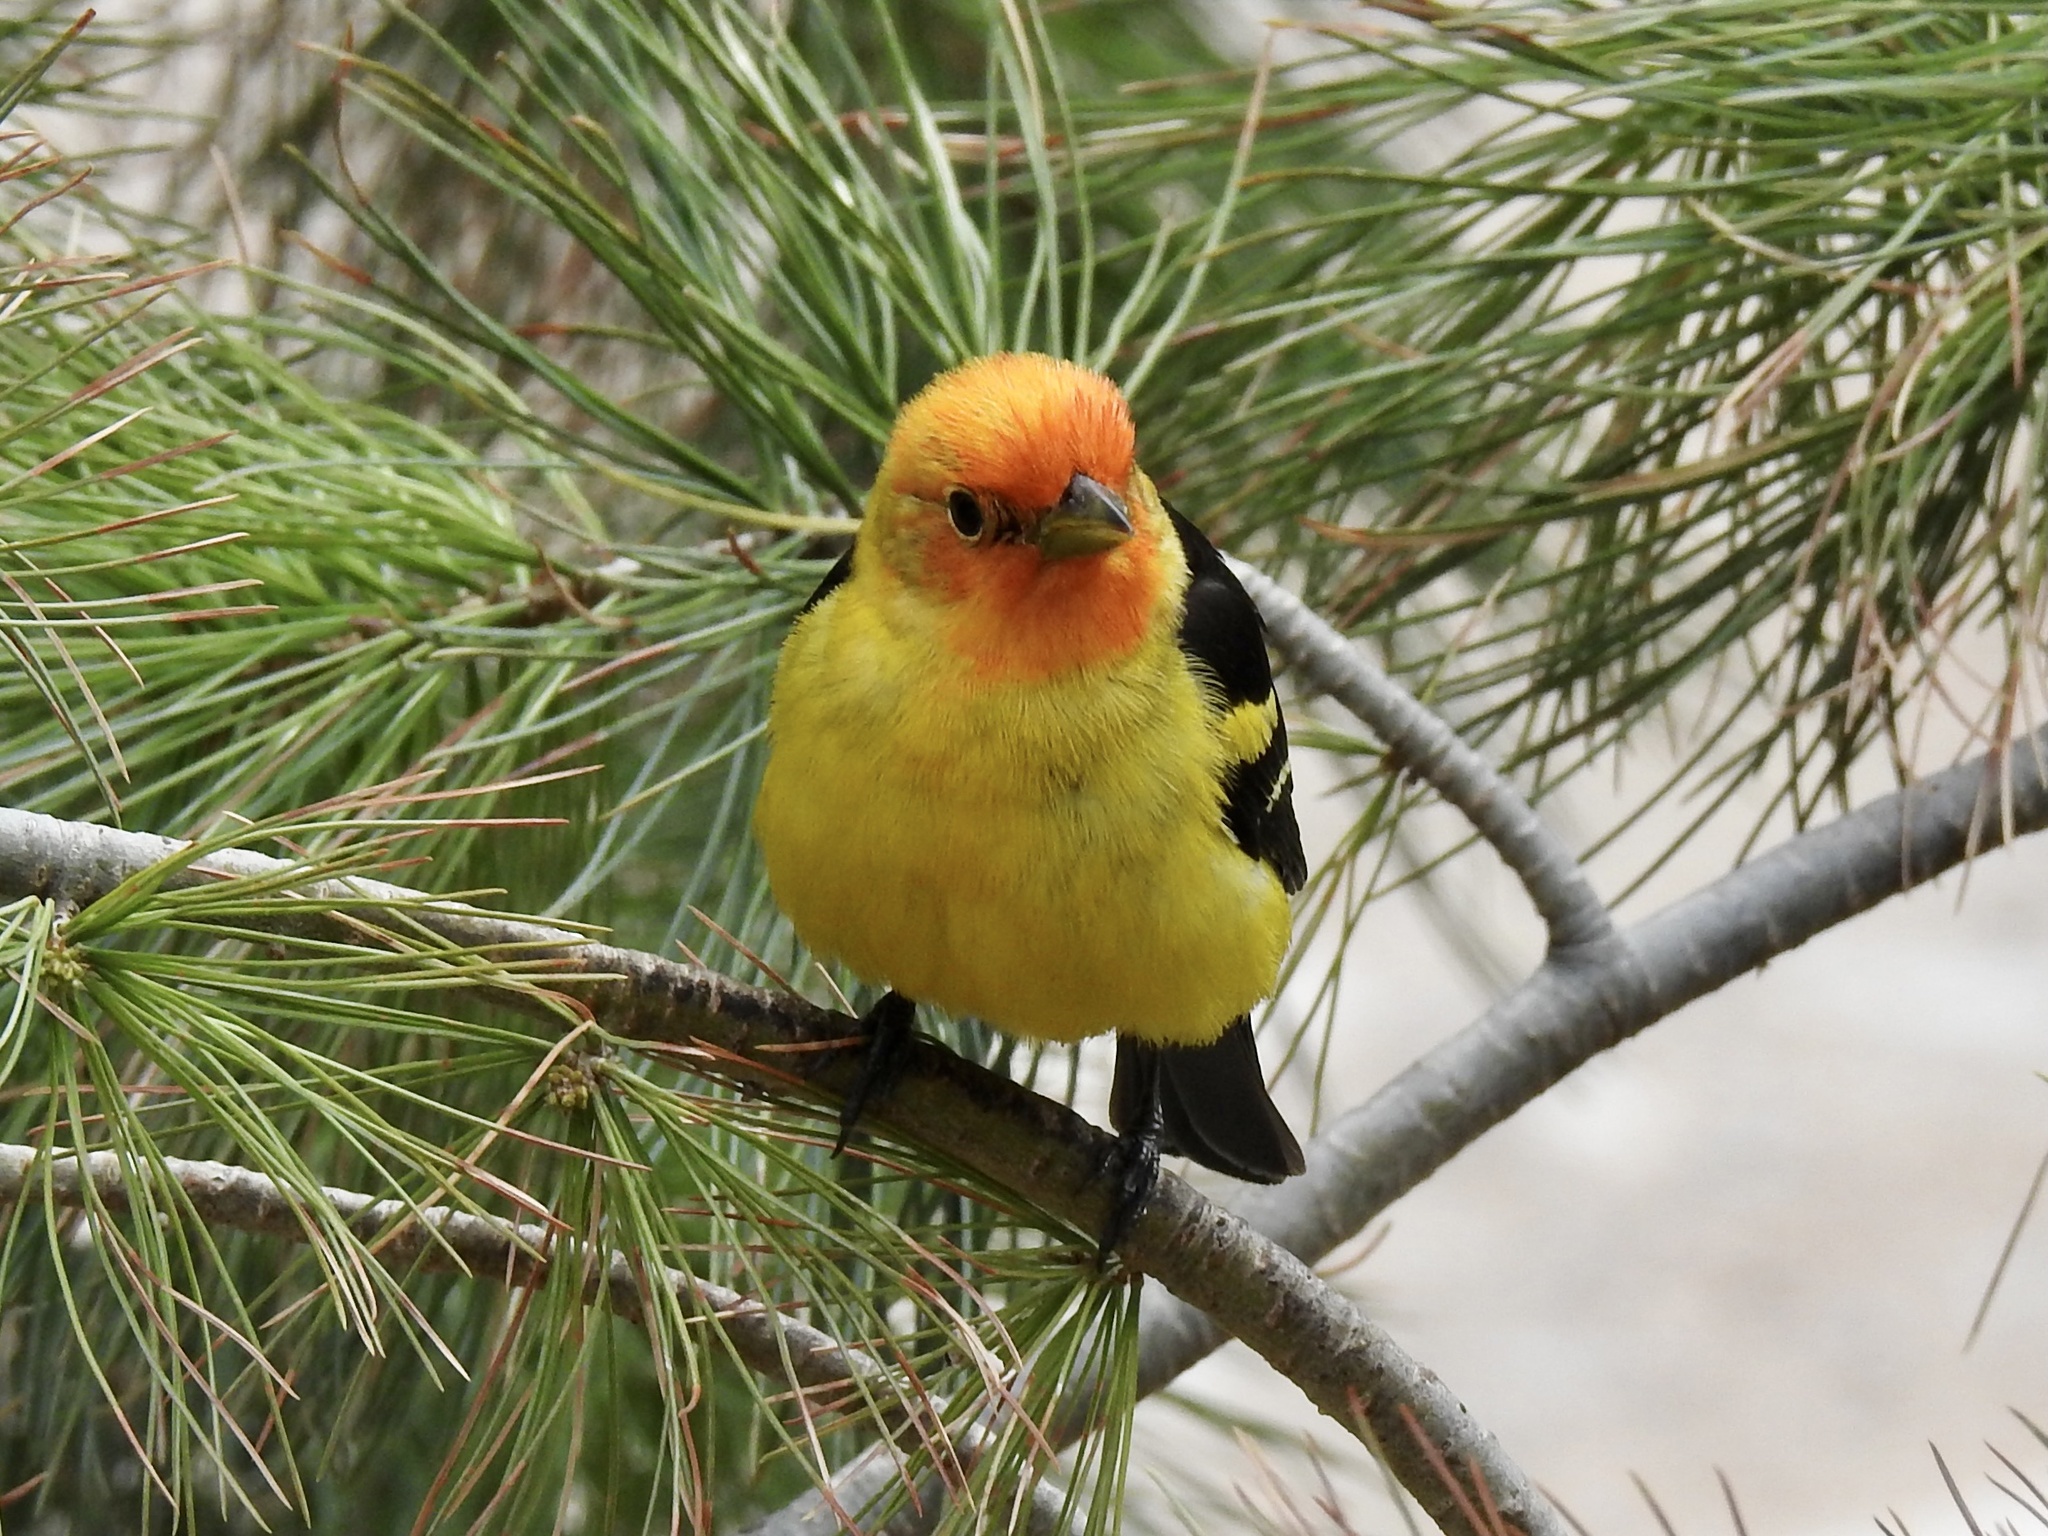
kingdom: Animalia
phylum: Chordata
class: Aves
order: Passeriformes
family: Cardinalidae
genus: Piranga
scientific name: Piranga ludoviciana
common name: Western tanager
